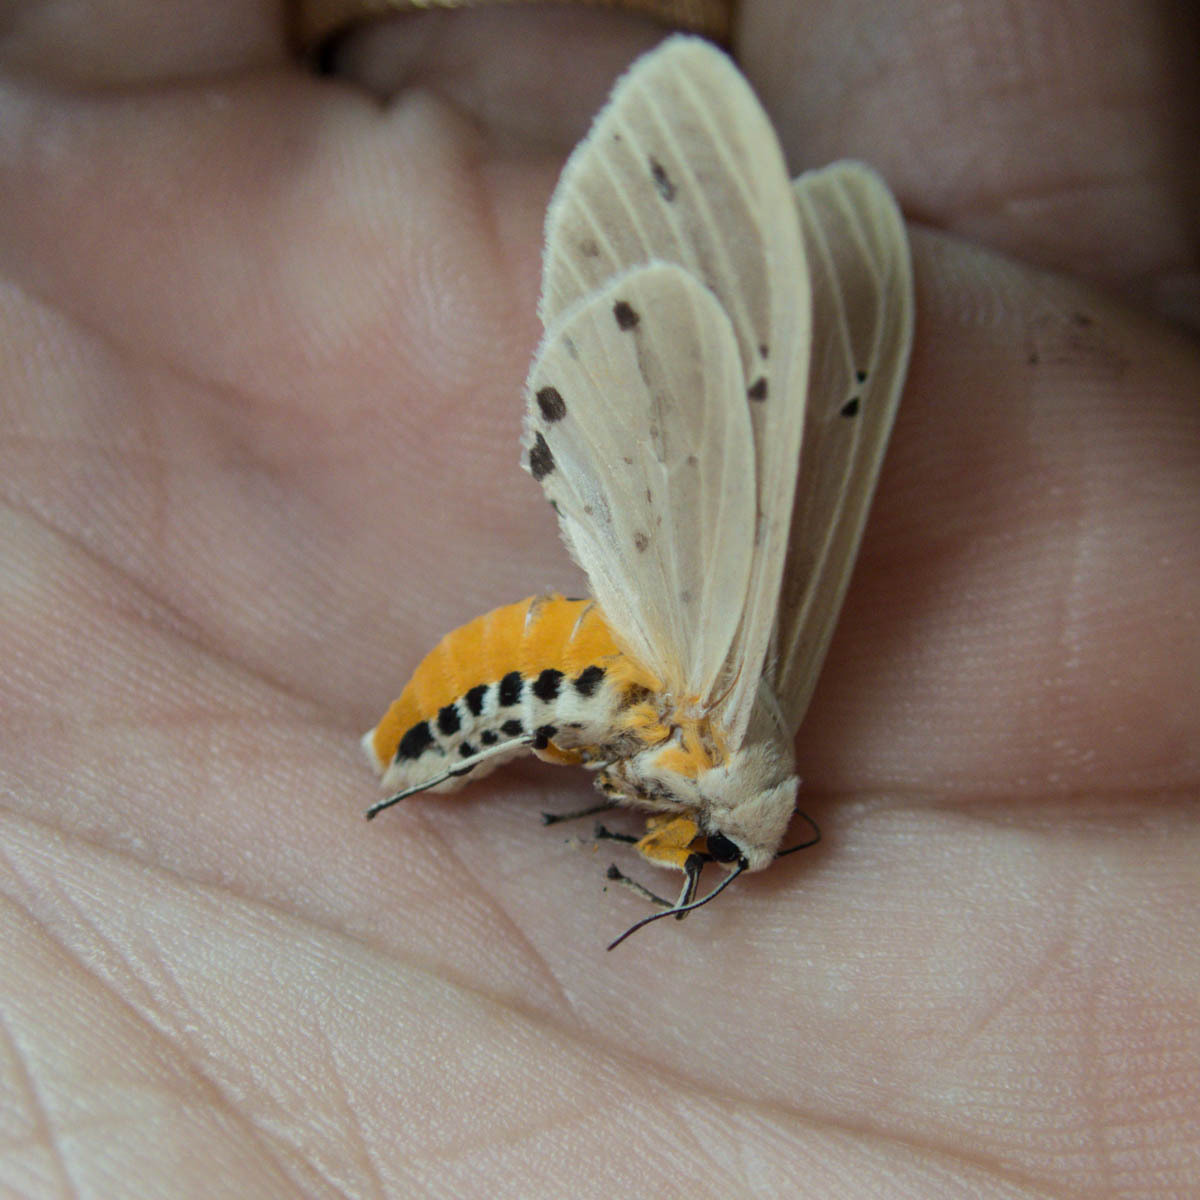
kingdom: Animalia
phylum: Arthropoda
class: Insecta
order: Lepidoptera
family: Erebidae
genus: Creatonotos
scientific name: Creatonotos transiens
